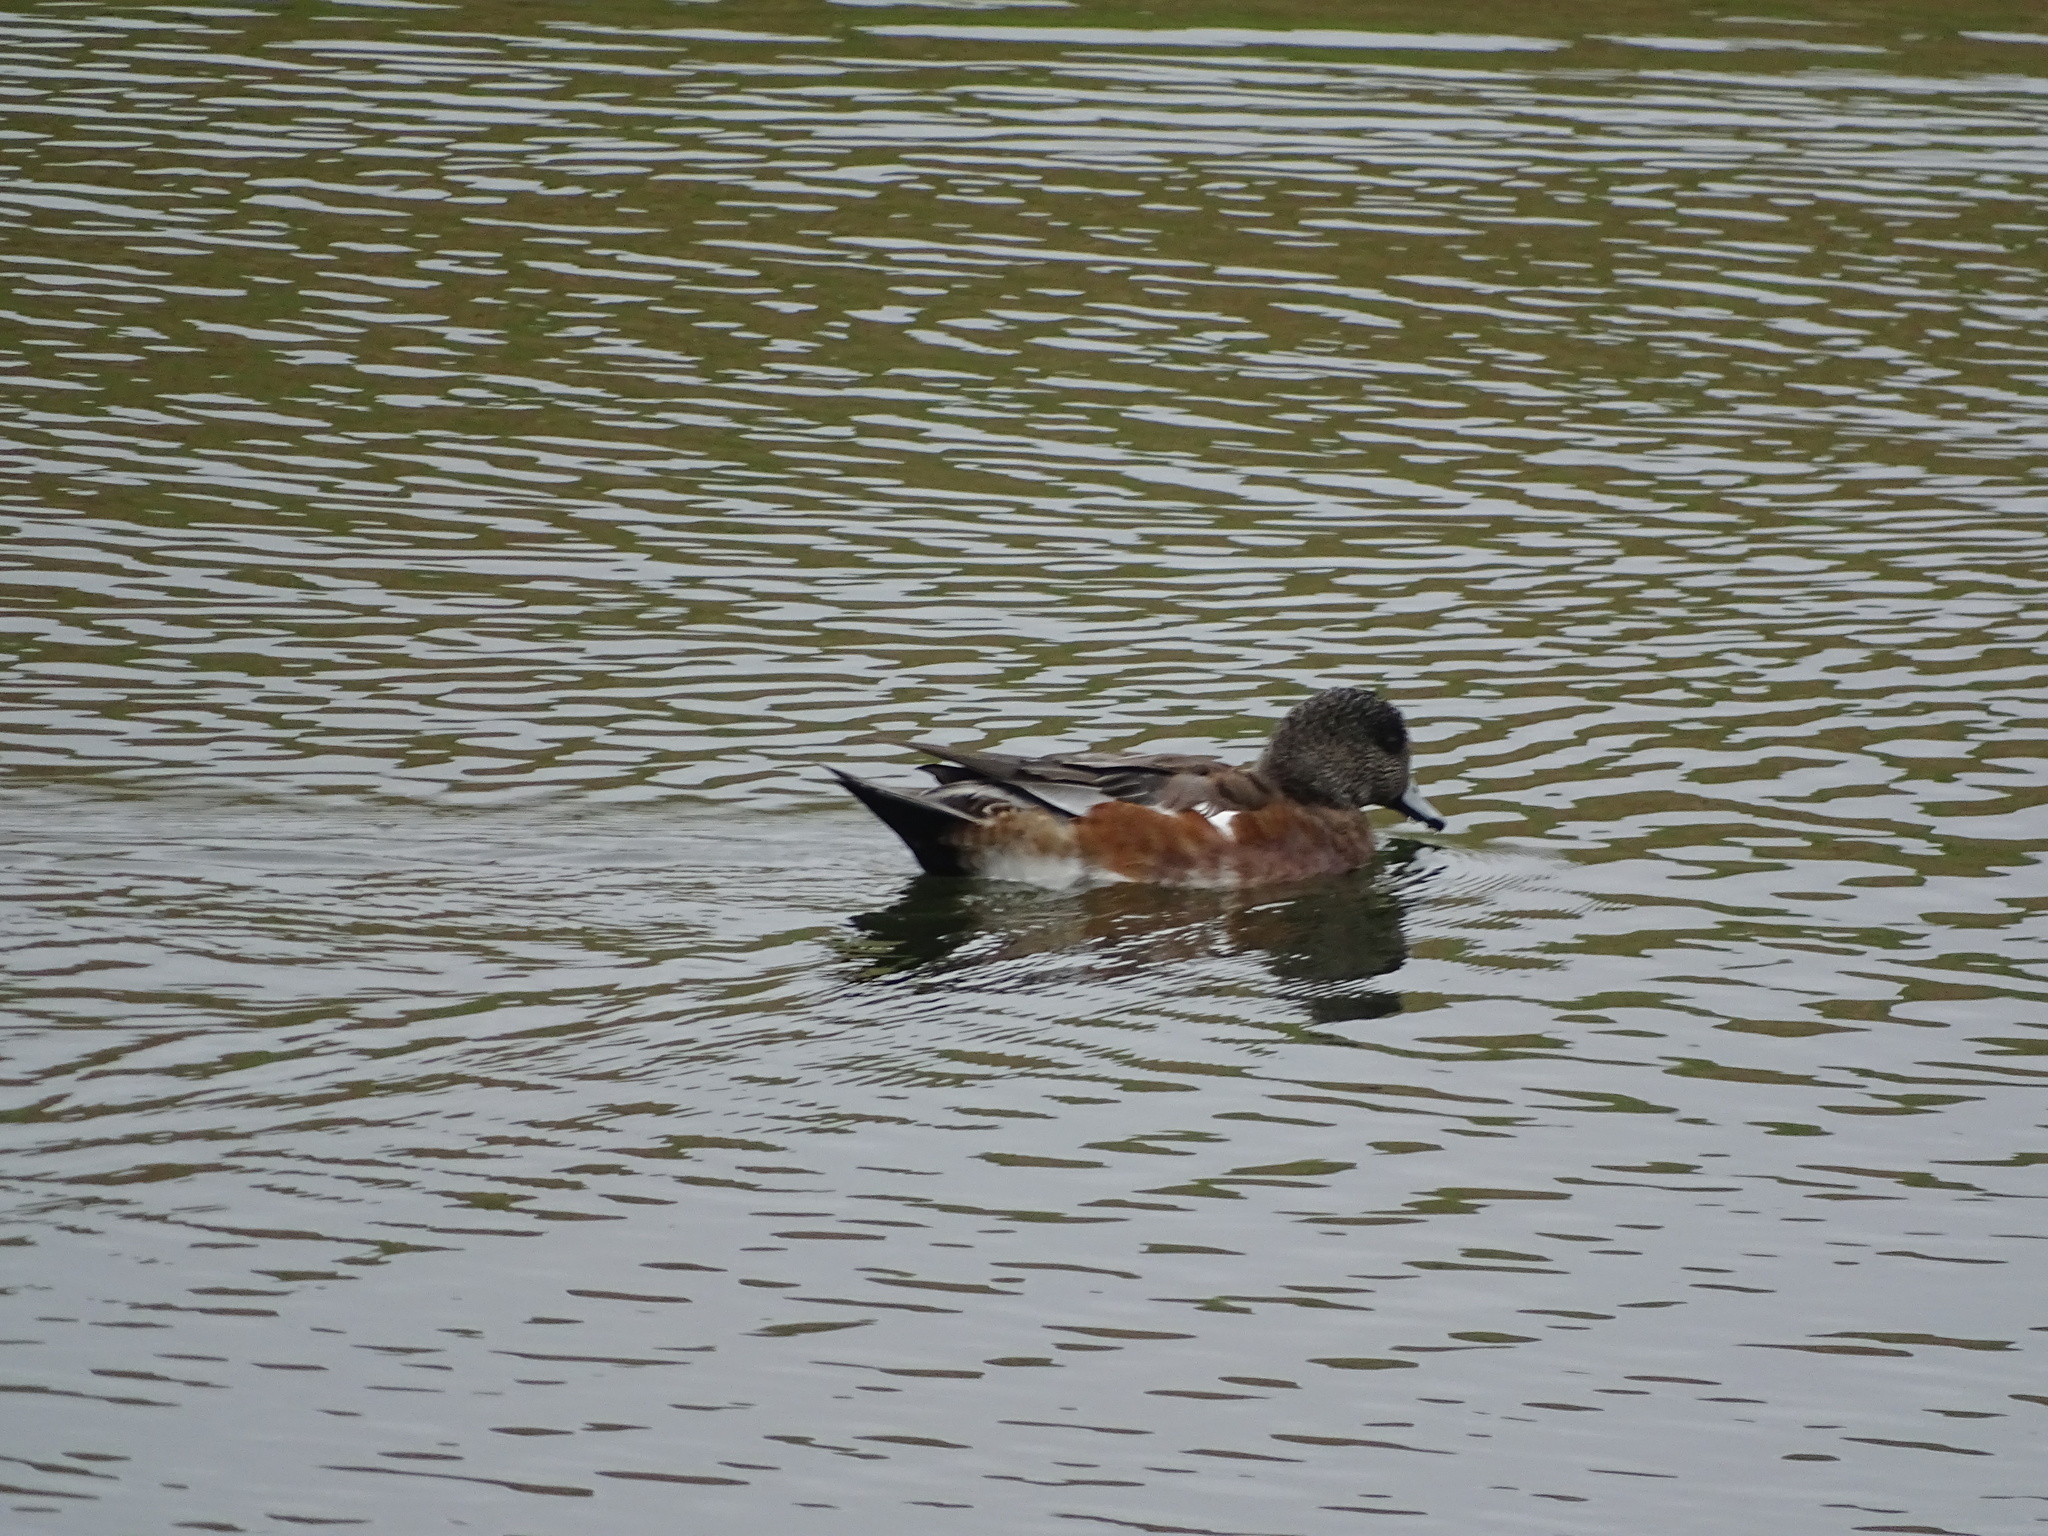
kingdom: Animalia
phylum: Chordata
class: Aves
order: Anseriformes
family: Anatidae
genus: Mareca
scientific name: Mareca americana
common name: American wigeon
